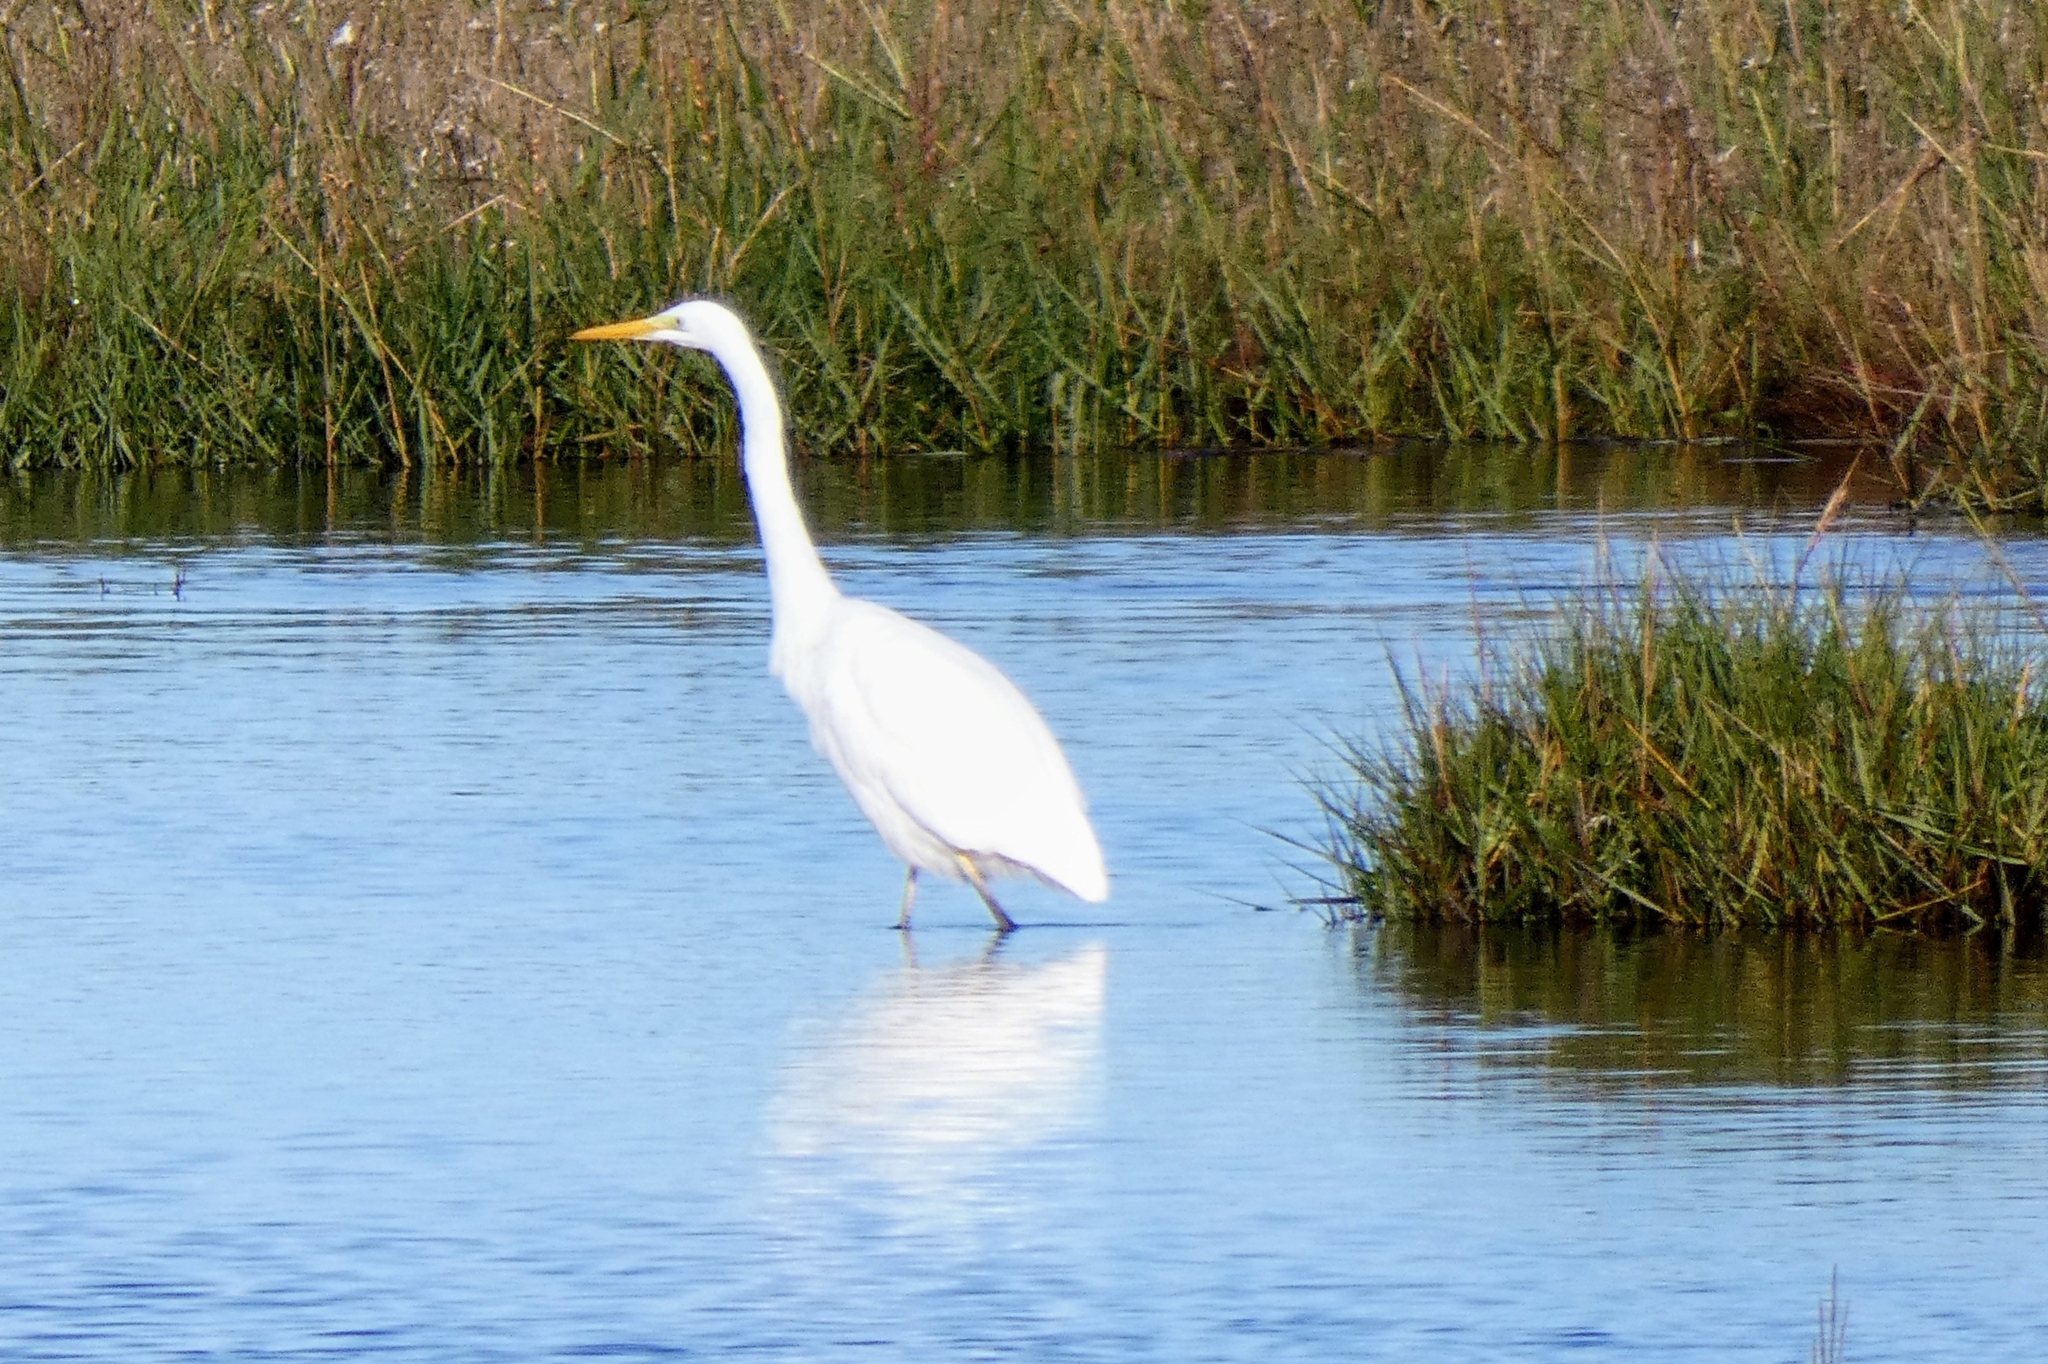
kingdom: Animalia
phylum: Chordata
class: Aves
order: Pelecaniformes
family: Ardeidae
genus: Ardea
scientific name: Ardea alba
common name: Great egret
